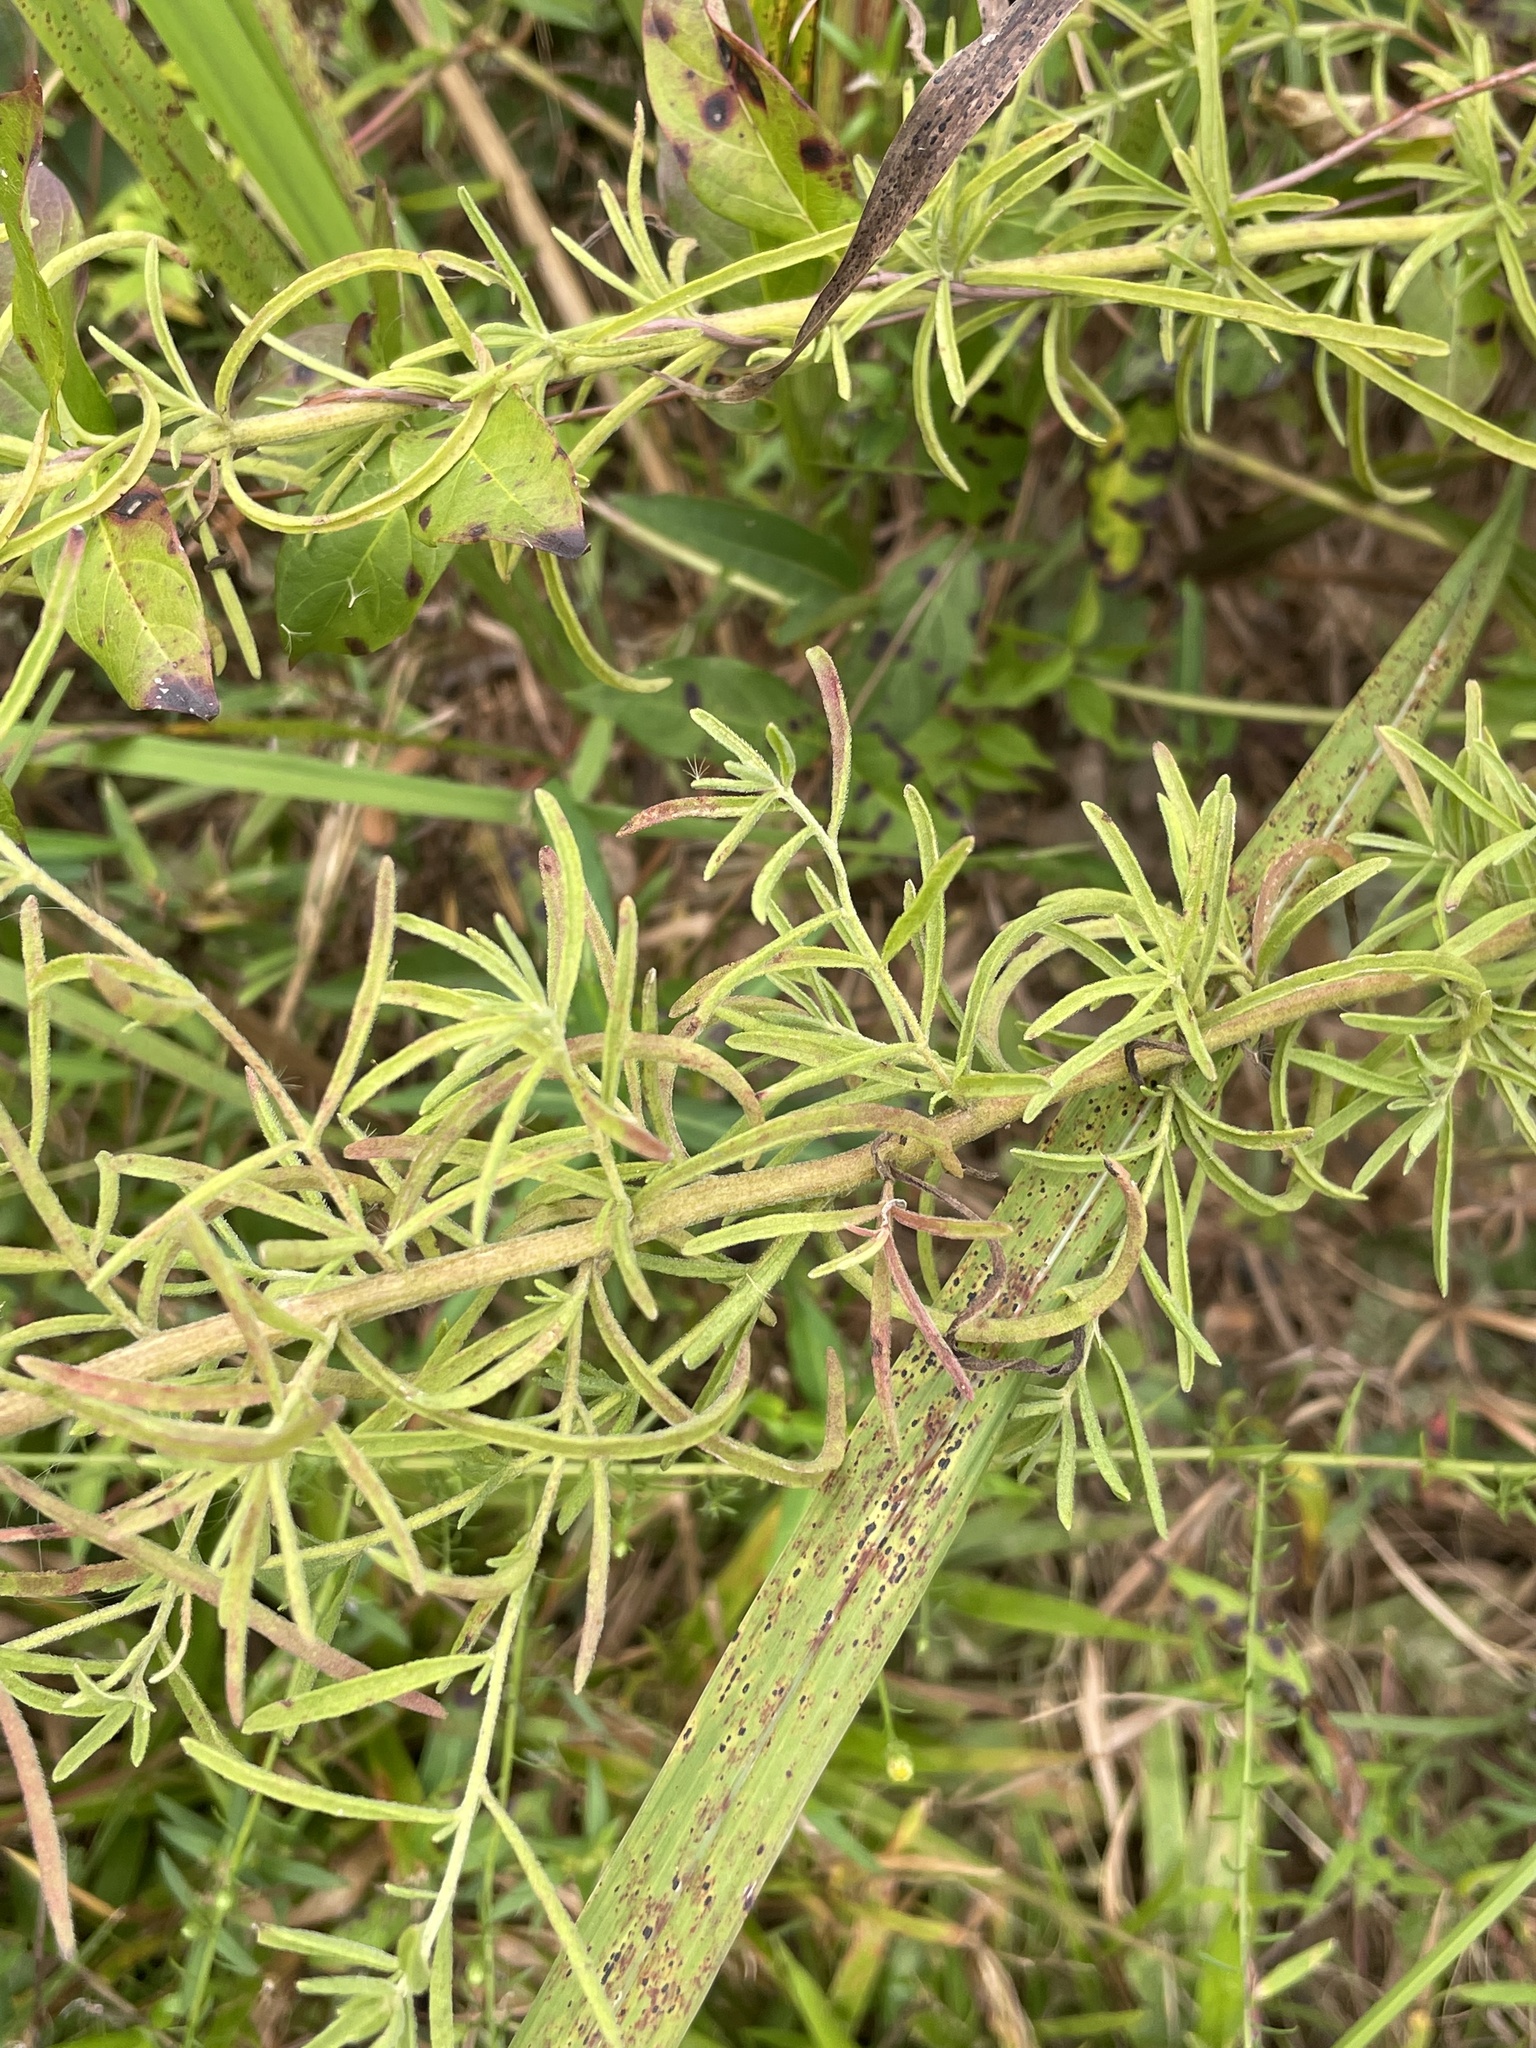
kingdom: Plantae
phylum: Tracheophyta
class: Magnoliopsida
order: Asterales
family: Asteraceae
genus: Eupatorium
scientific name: Eupatorium hyssopifolium
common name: Hyssop-leaf thoroughwort
